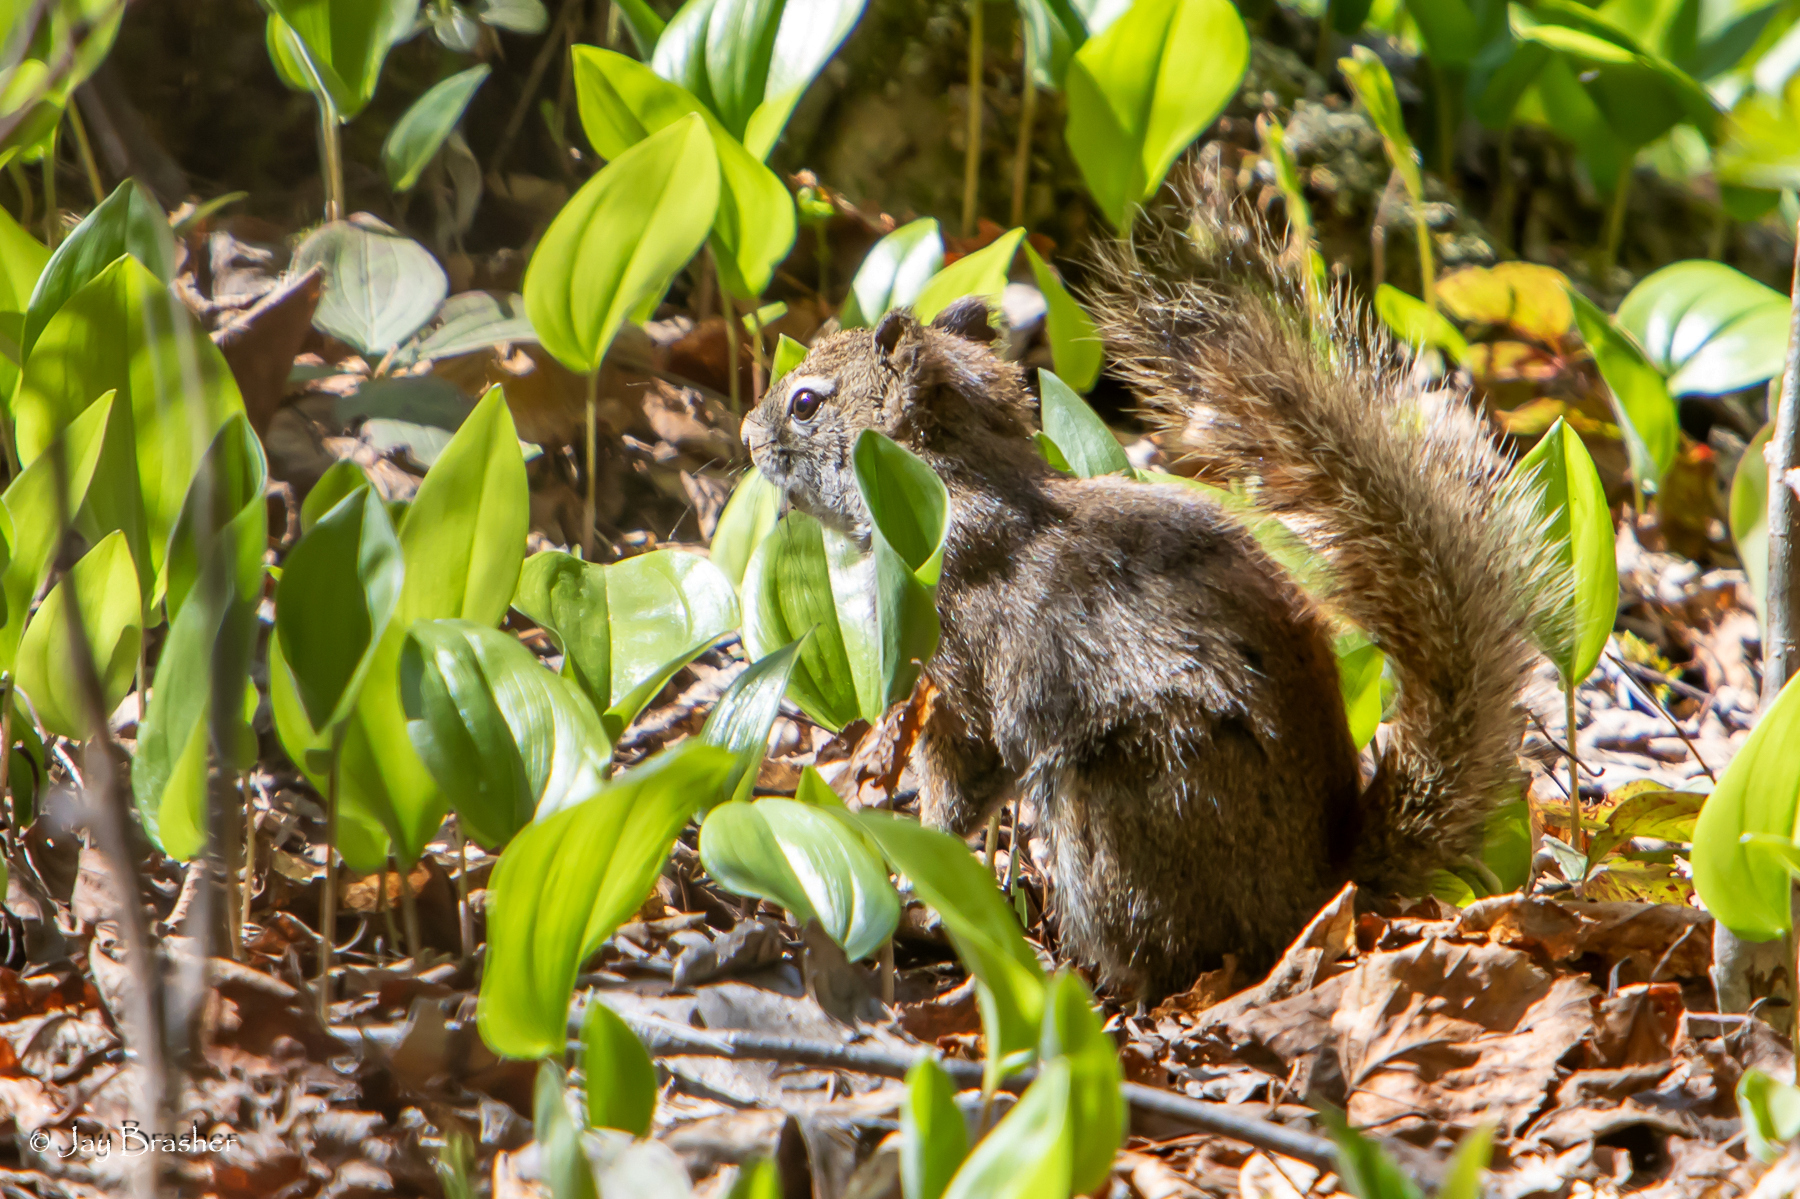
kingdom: Animalia
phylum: Chordata
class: Mammalia
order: Rodentia
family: Sciuridae
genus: Tamiasciurus
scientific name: Tamiasciurus hudsonicus
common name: Red squirrel
